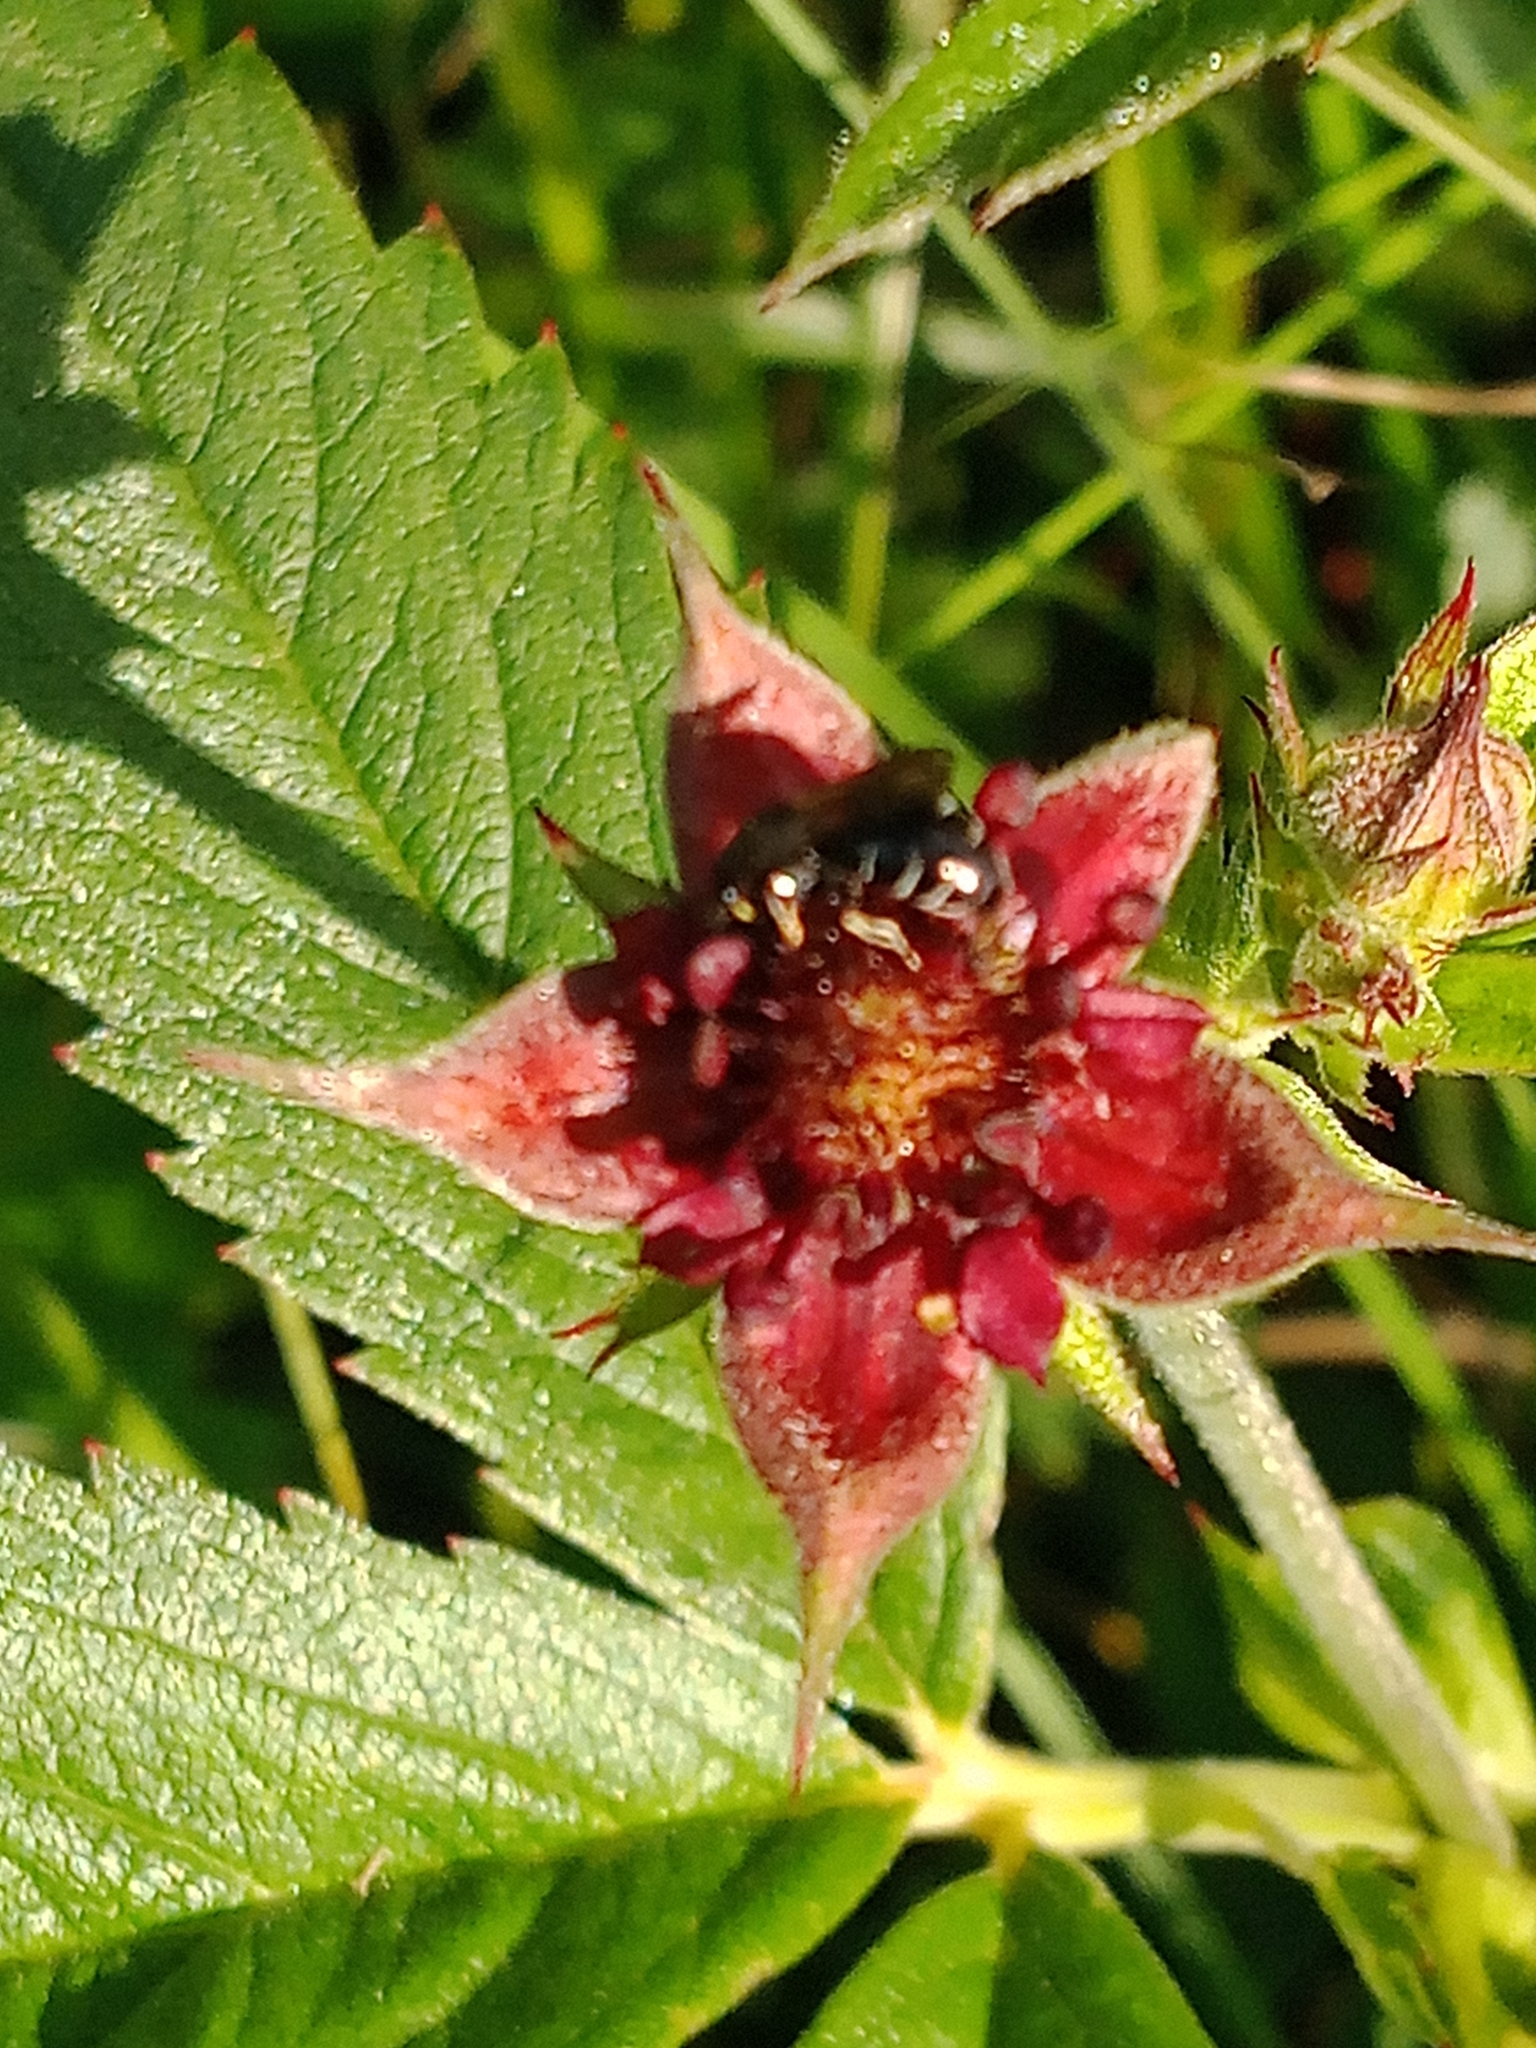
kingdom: Plantae
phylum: Tracheophyta
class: Magnoliopsida
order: Rosales
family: Rosaceae
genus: Comarum
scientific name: Comarum palustre
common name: Marsh cinquefoil
